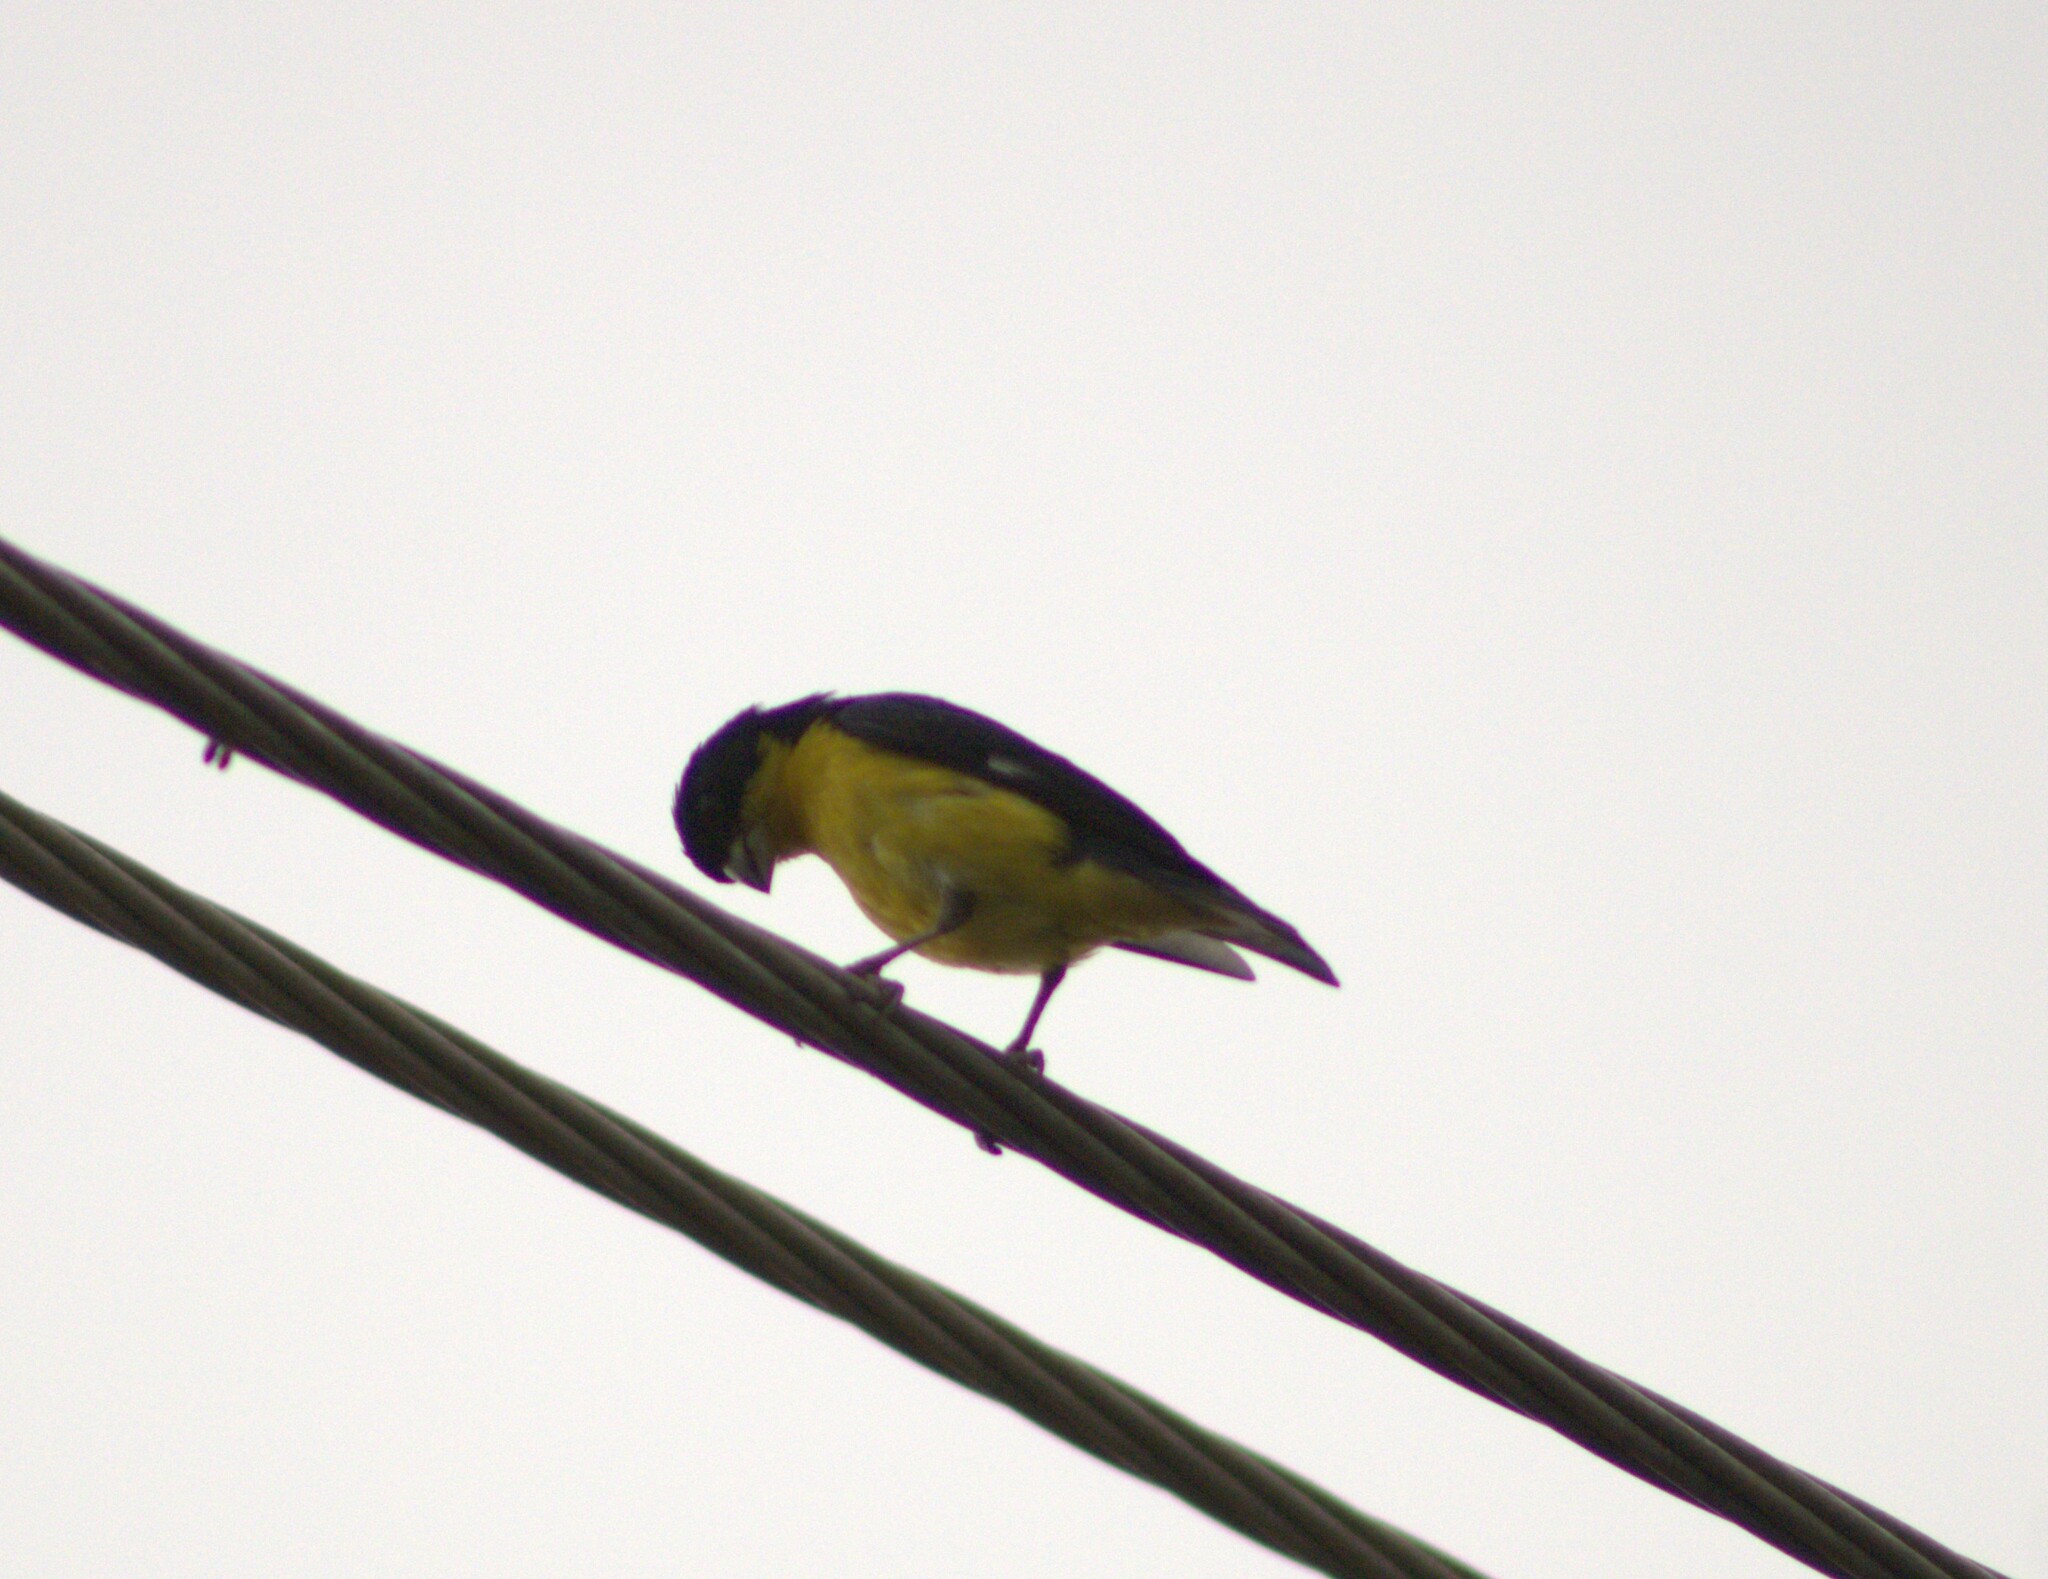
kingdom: Animalia
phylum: Chordata
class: Aves
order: Passeriformes
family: Fringillidae
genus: Spinus
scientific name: Spinus psaltria
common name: Lesser goldfinch
